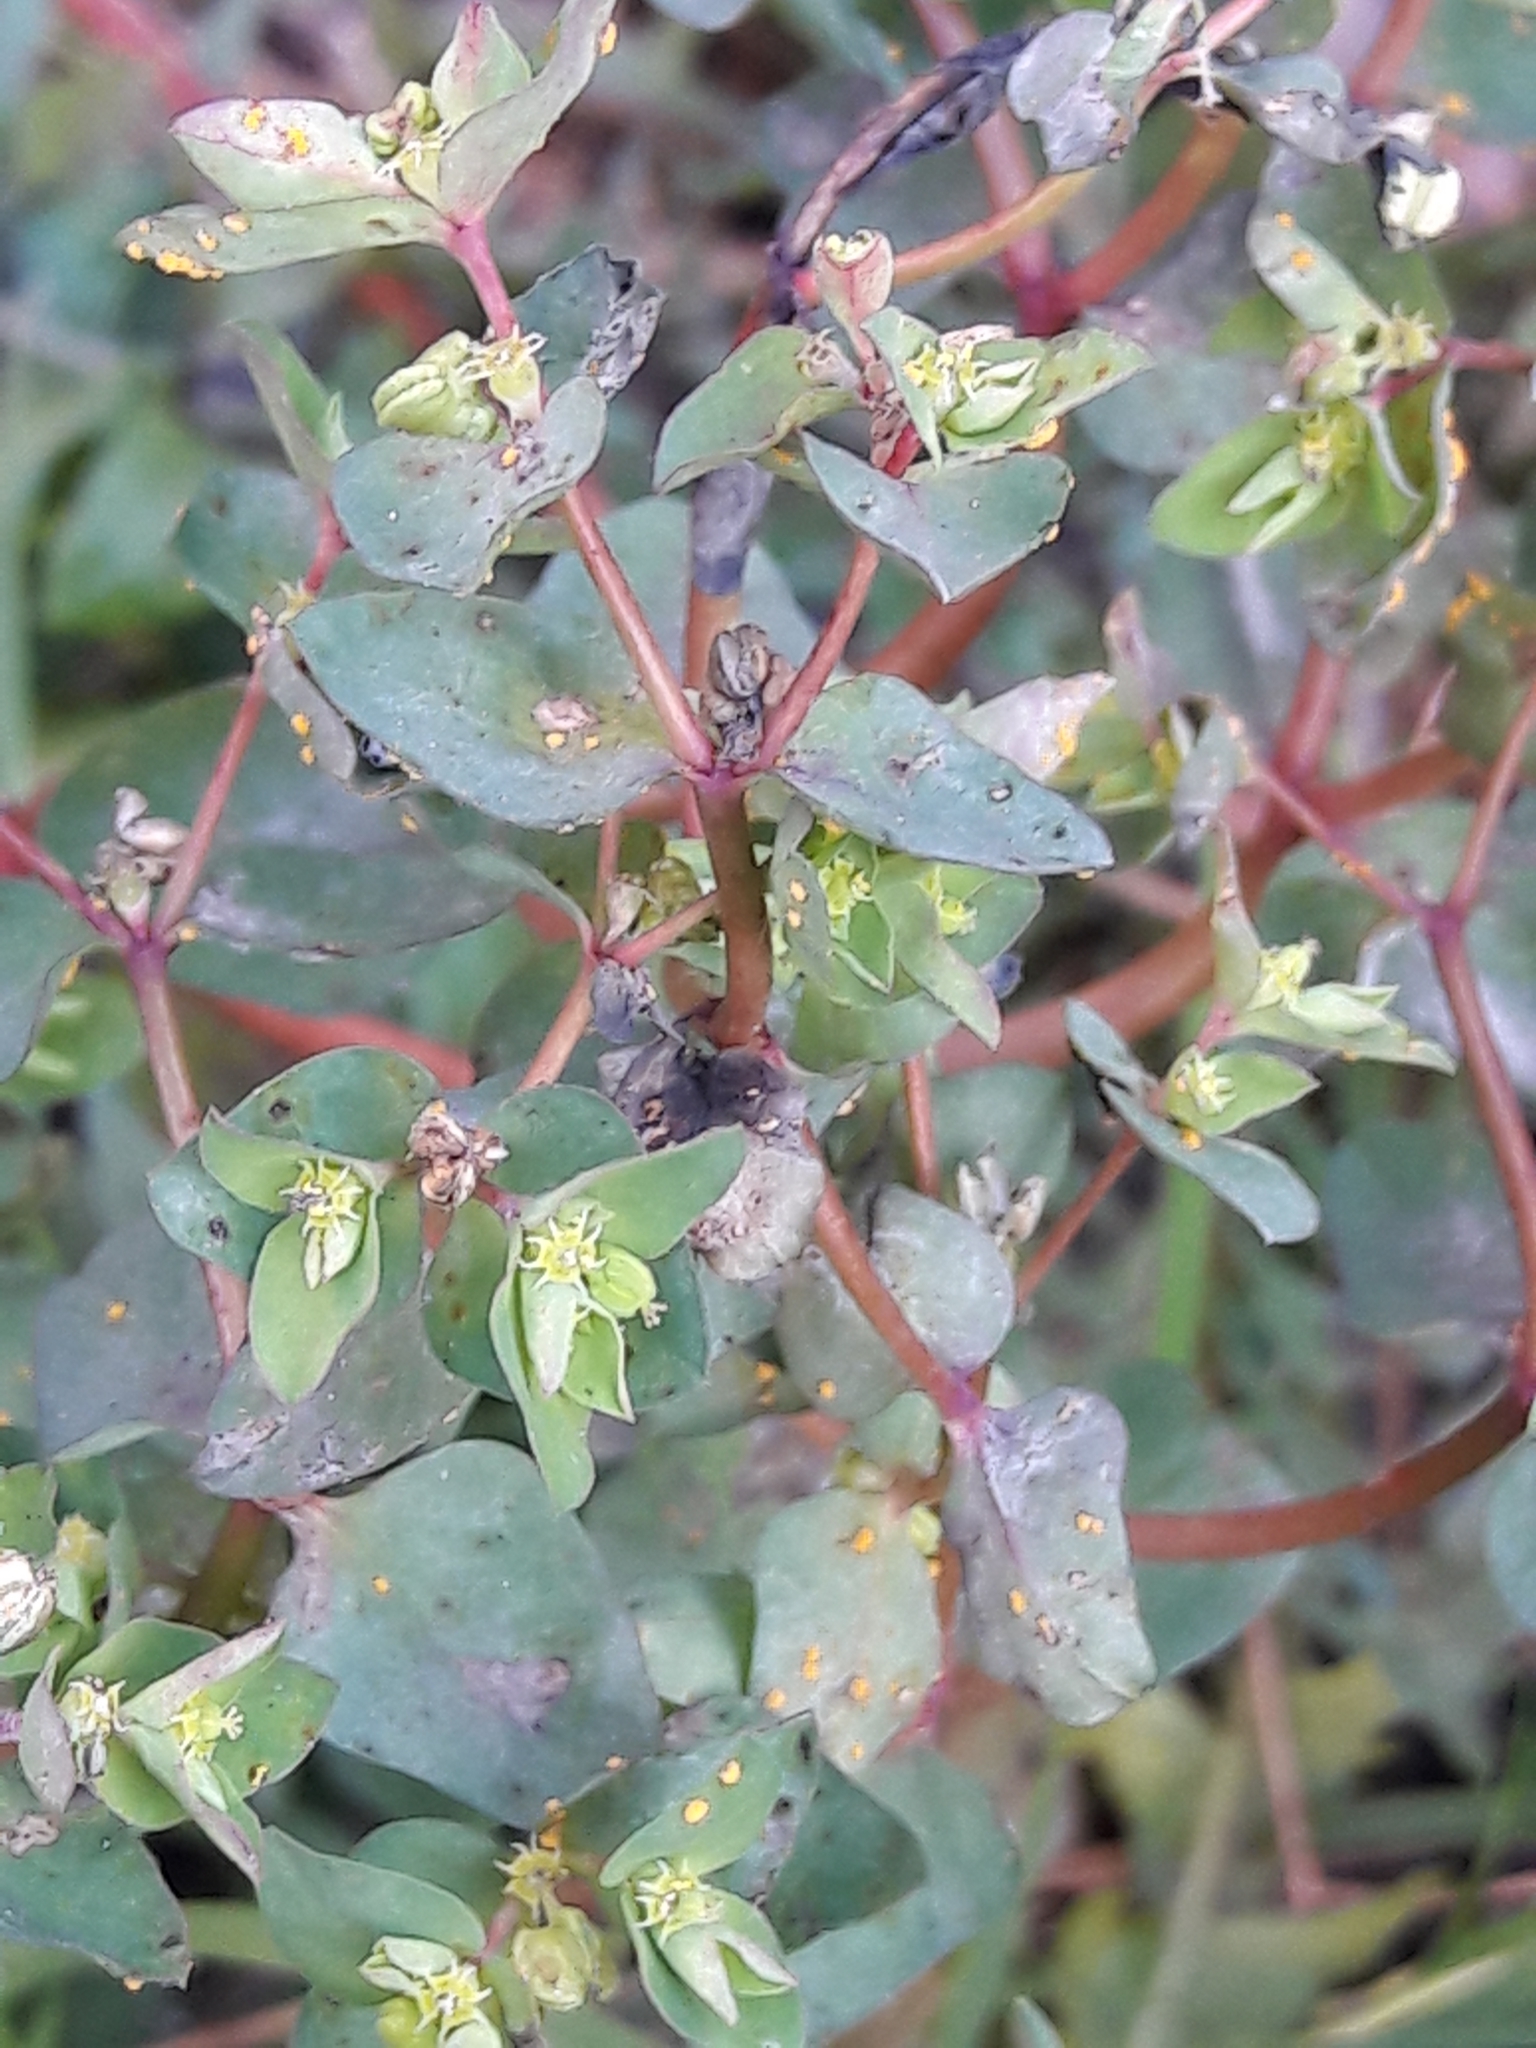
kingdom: Plantae
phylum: Tracheophyta
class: Magnoliopsida
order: Malpighiales
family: Euphorbiaceae
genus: Euphorbia
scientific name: Euphorbia peplus
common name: Petty spurge
